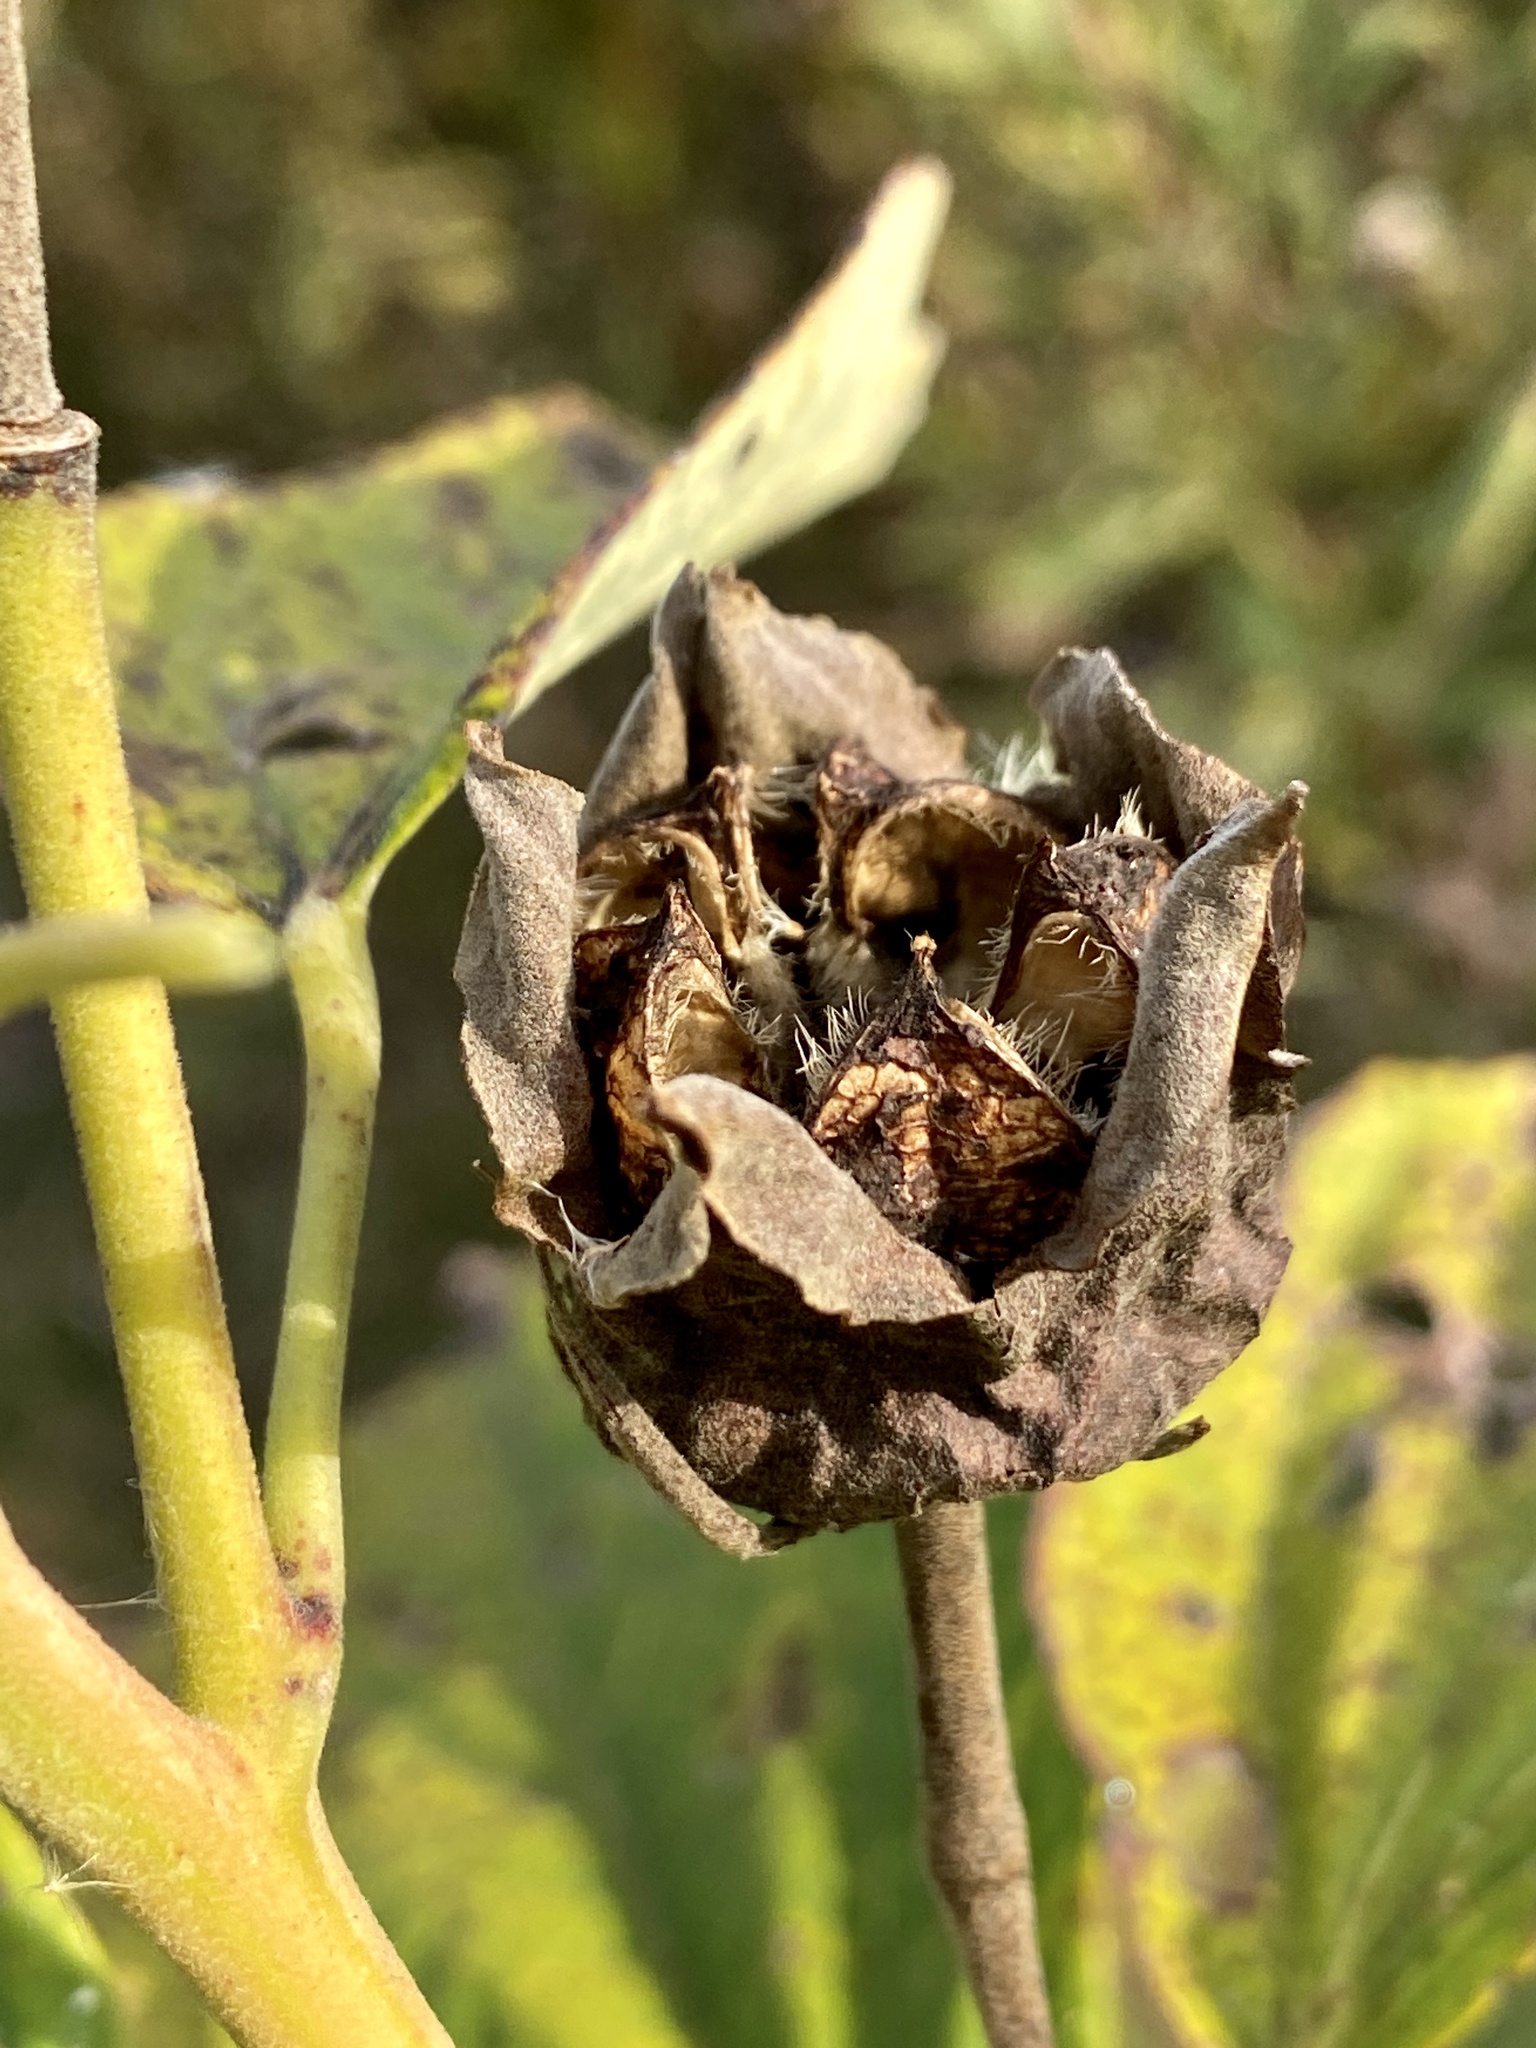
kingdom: Plantae
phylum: Tracheophyta
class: Magnoliopsida
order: Malvales
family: Malvaceae
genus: Hibiscus
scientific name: Hibiscus moscheutos
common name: Common rose-mallow
